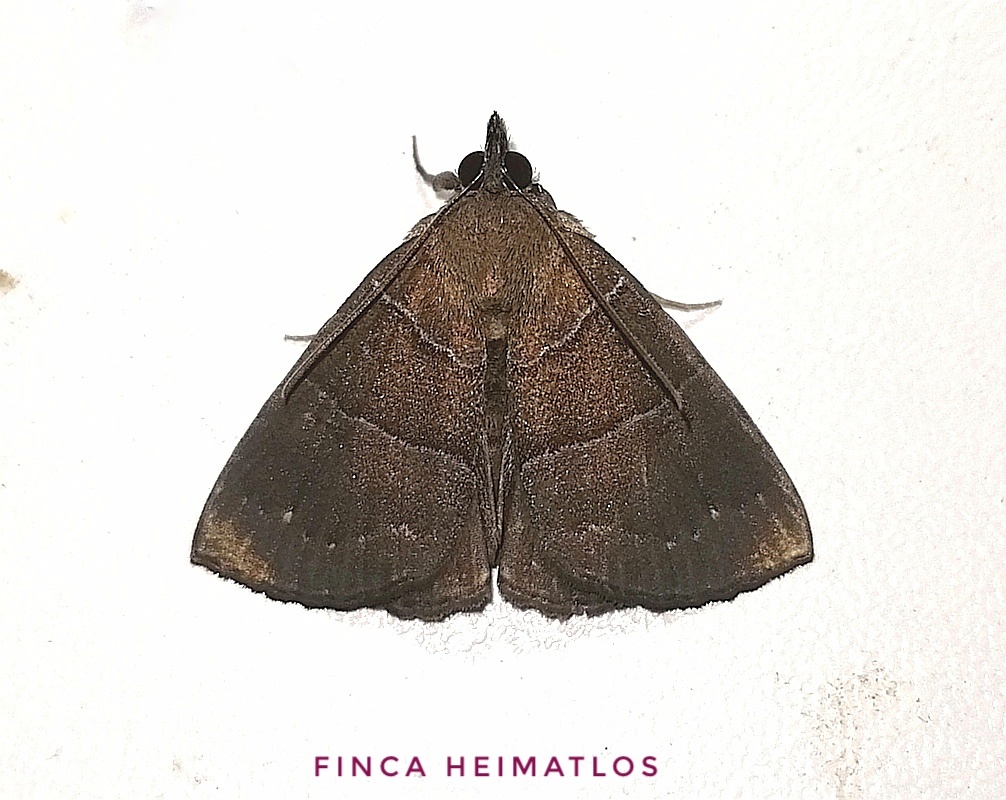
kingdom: Animalia
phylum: Arthropoda
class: Insecta
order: Lepidoptera
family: Erebidae
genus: Hypena
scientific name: Hypena hemonalis
